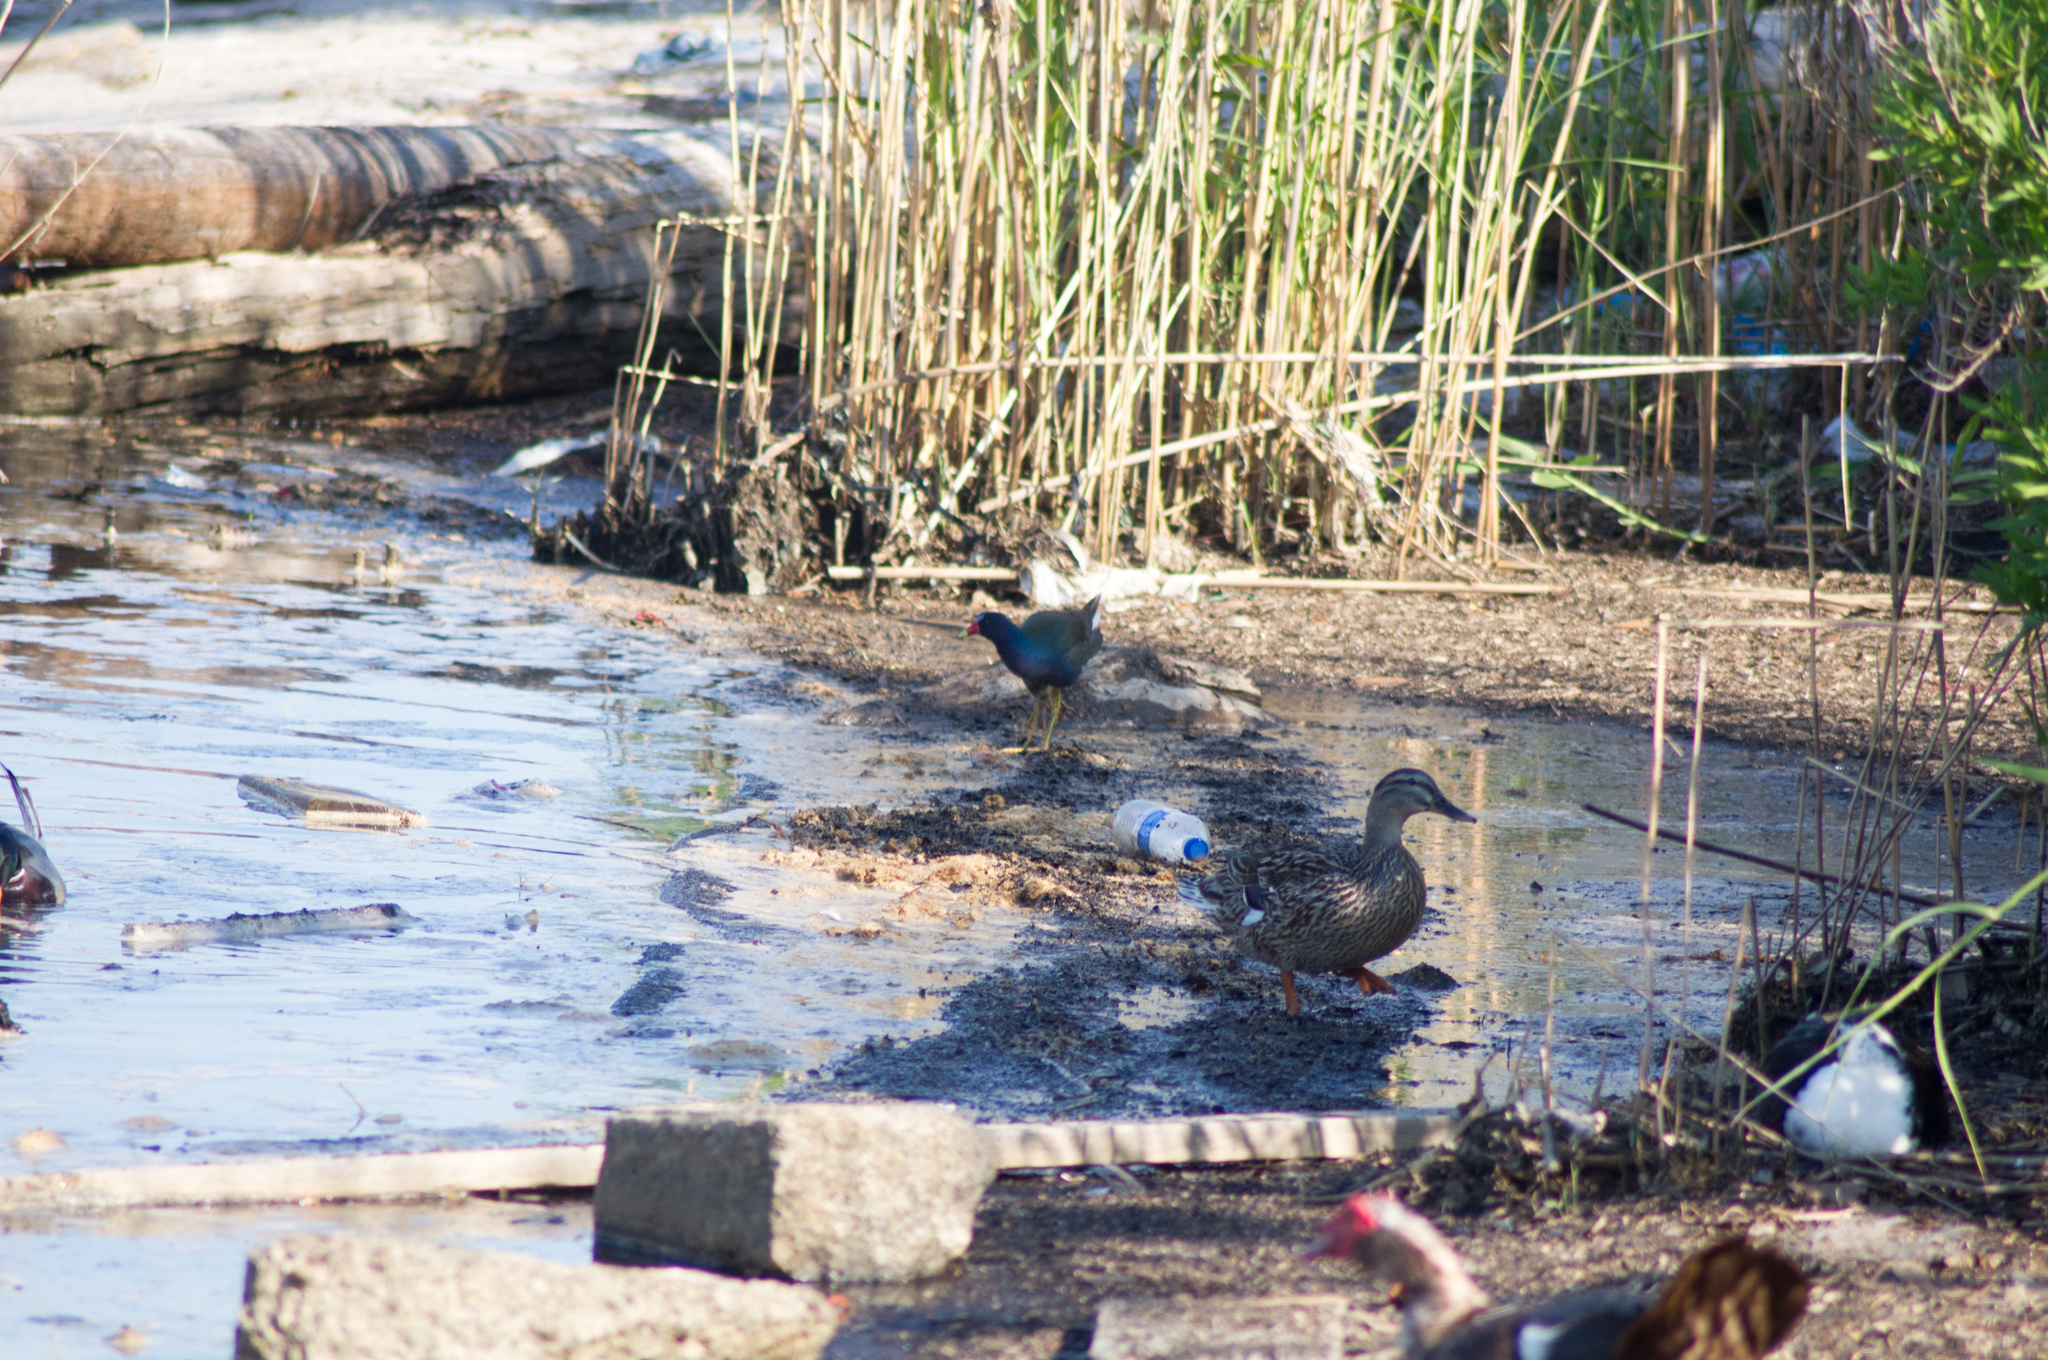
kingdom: Animalia
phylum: Chordata
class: Aves
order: Gruiformes
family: Rallidae
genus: Porphyrio
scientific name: Porphyrio martinica
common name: Purple gallinule
